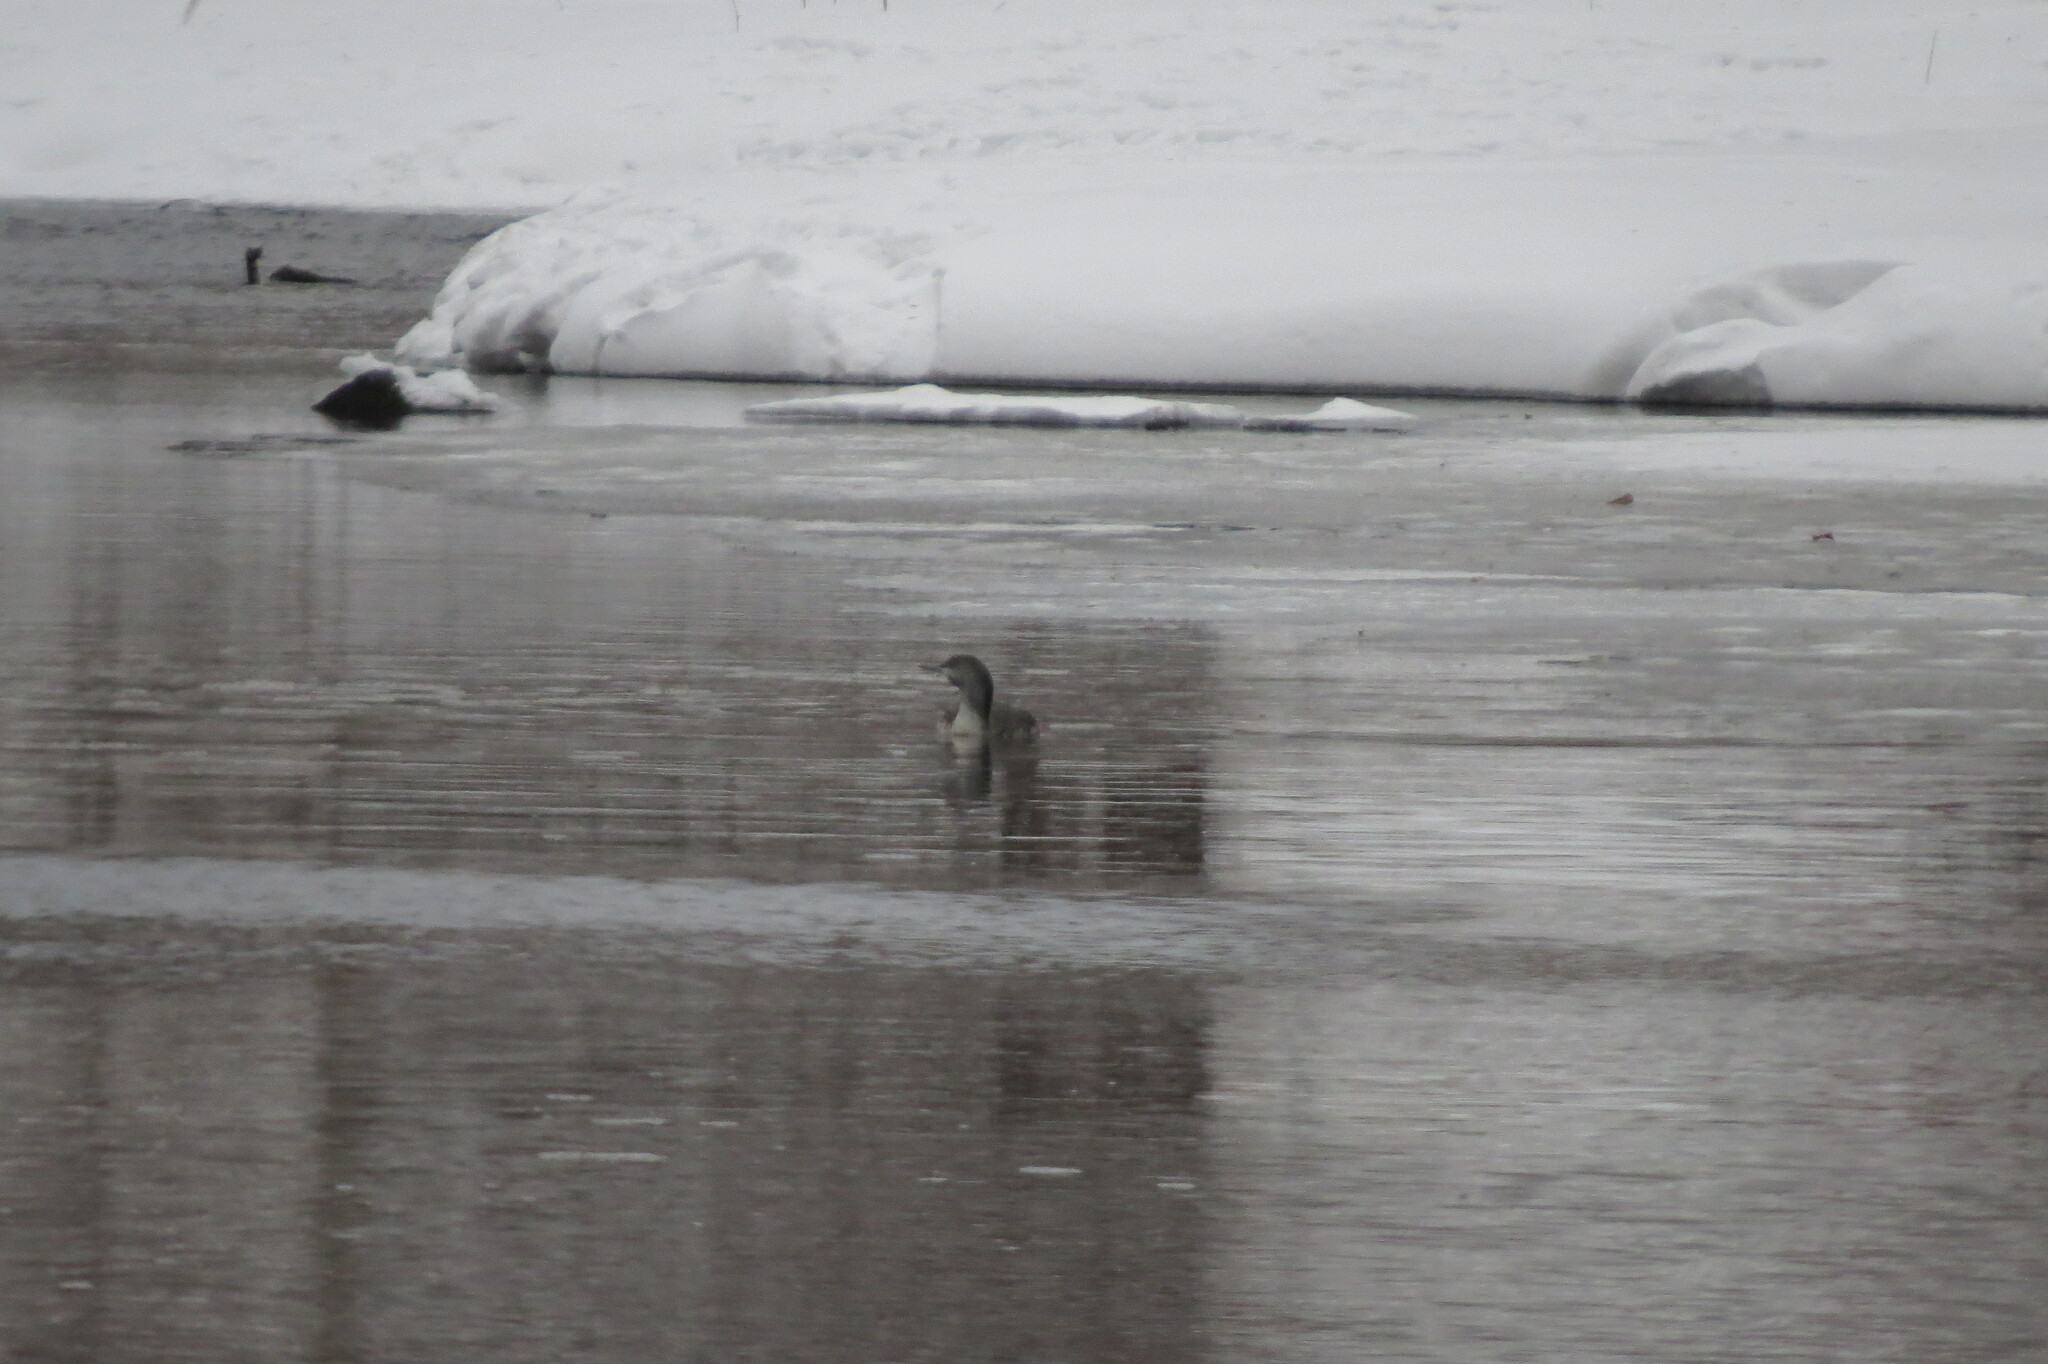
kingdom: Animalia
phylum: Chordata
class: Aves
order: Gaviiformes
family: Gaviidae
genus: Gavia
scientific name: Gavia stellata
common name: Red-throated loon
